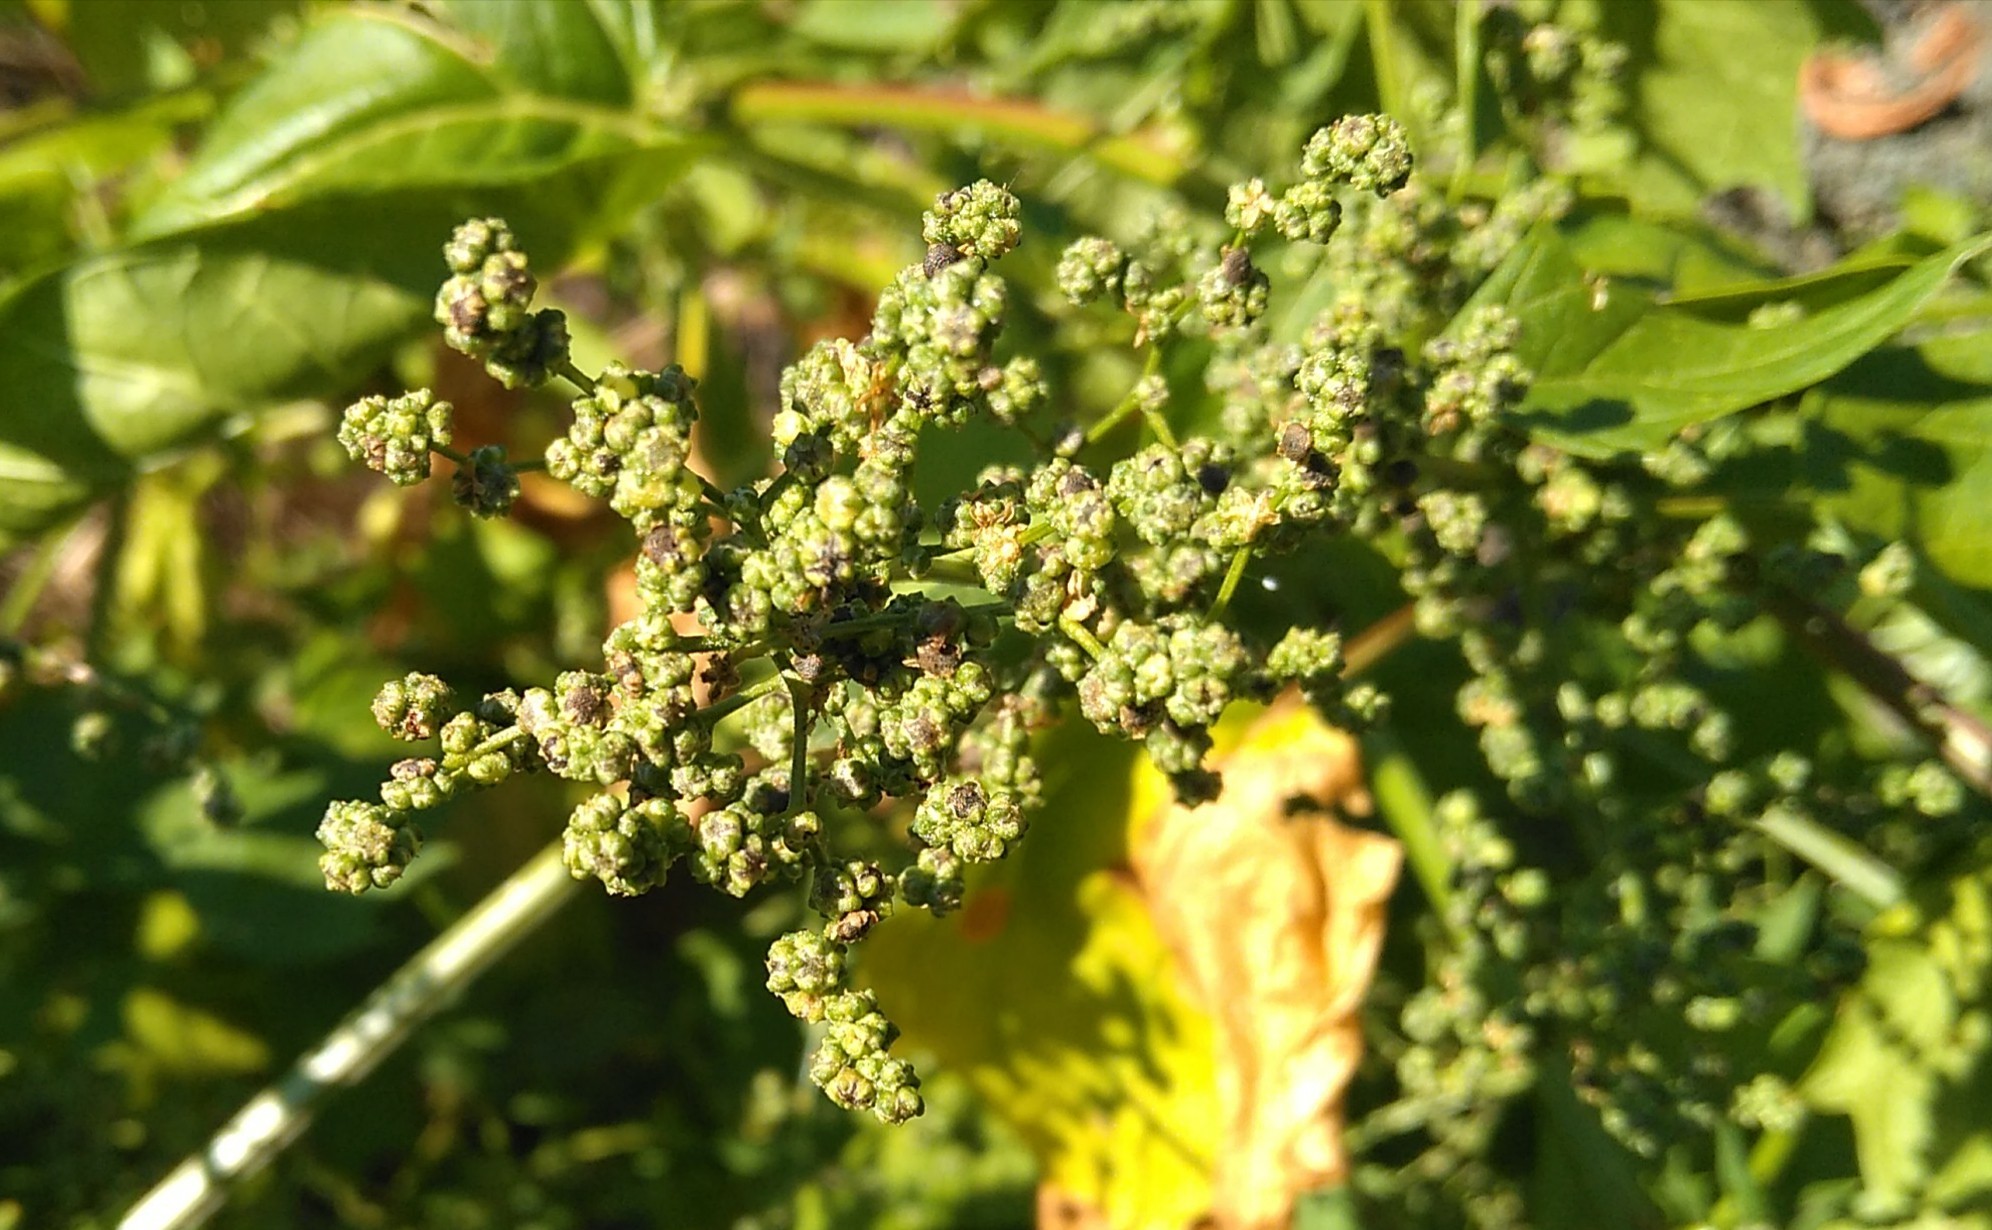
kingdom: Plantae
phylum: Tracheophyta
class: Magnoliopsida
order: Caryophyllales
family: Amaranthaceae
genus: Chenopodiastrum
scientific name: Chenopodiastrum hybridum
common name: Mapleleaf goosefoot
